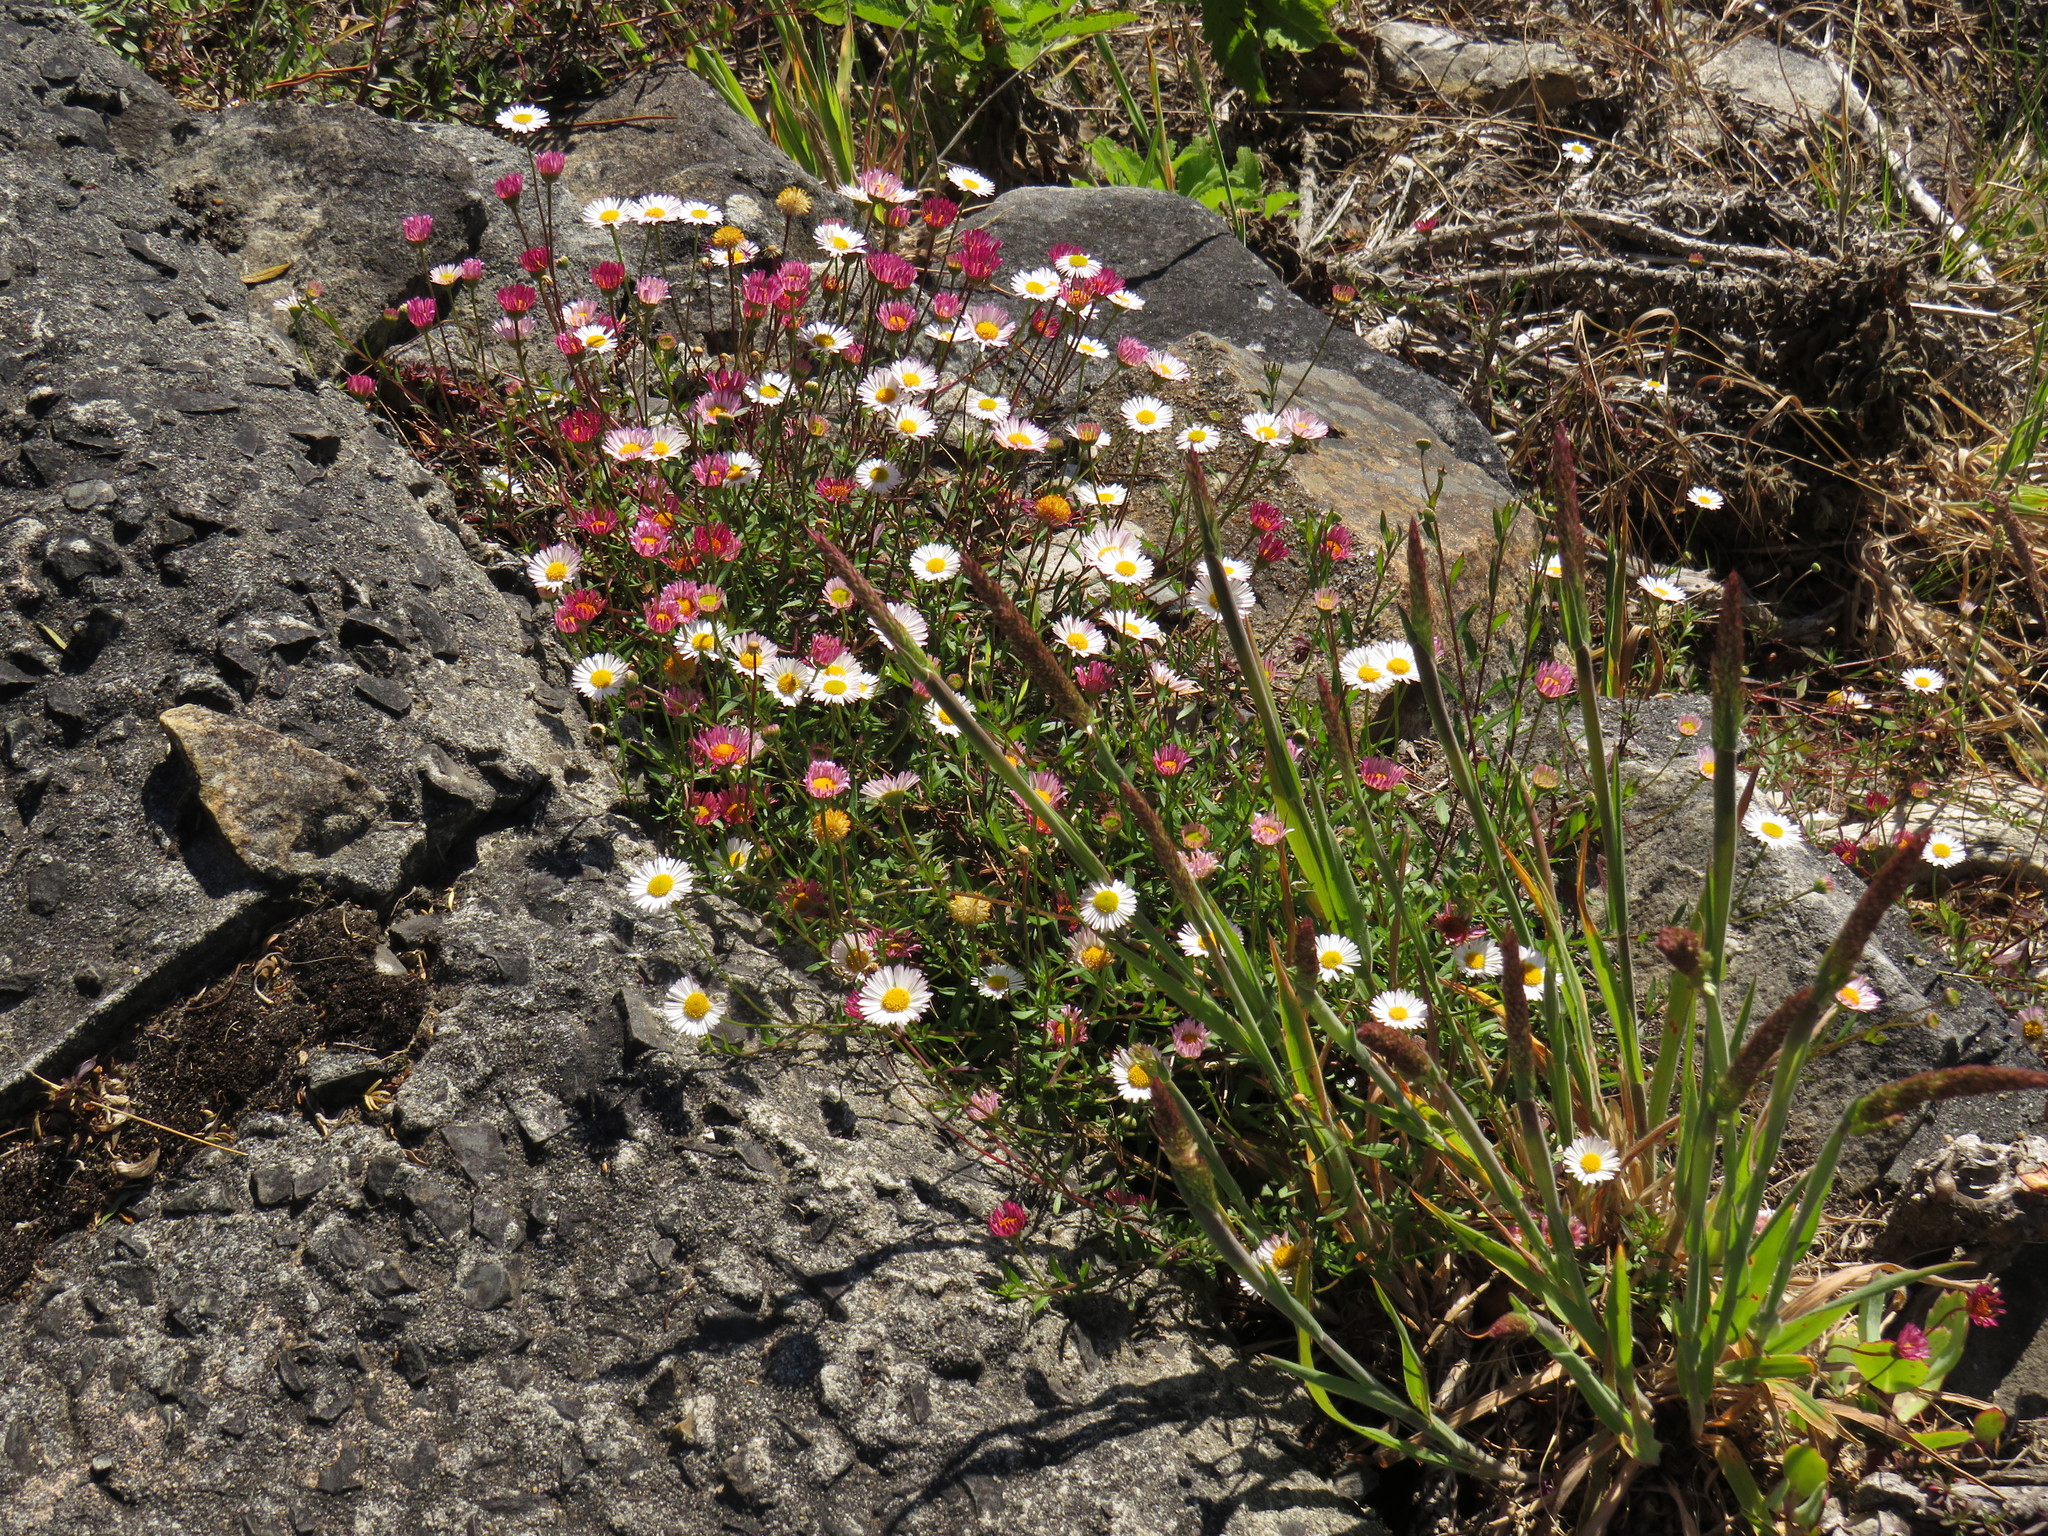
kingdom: Plantae
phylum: Tracheophyta
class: Magnoliopsida
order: Asterales
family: Asteraceae
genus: Erigeron
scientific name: Erigeron karvinskianus
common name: Mexican fleabane
